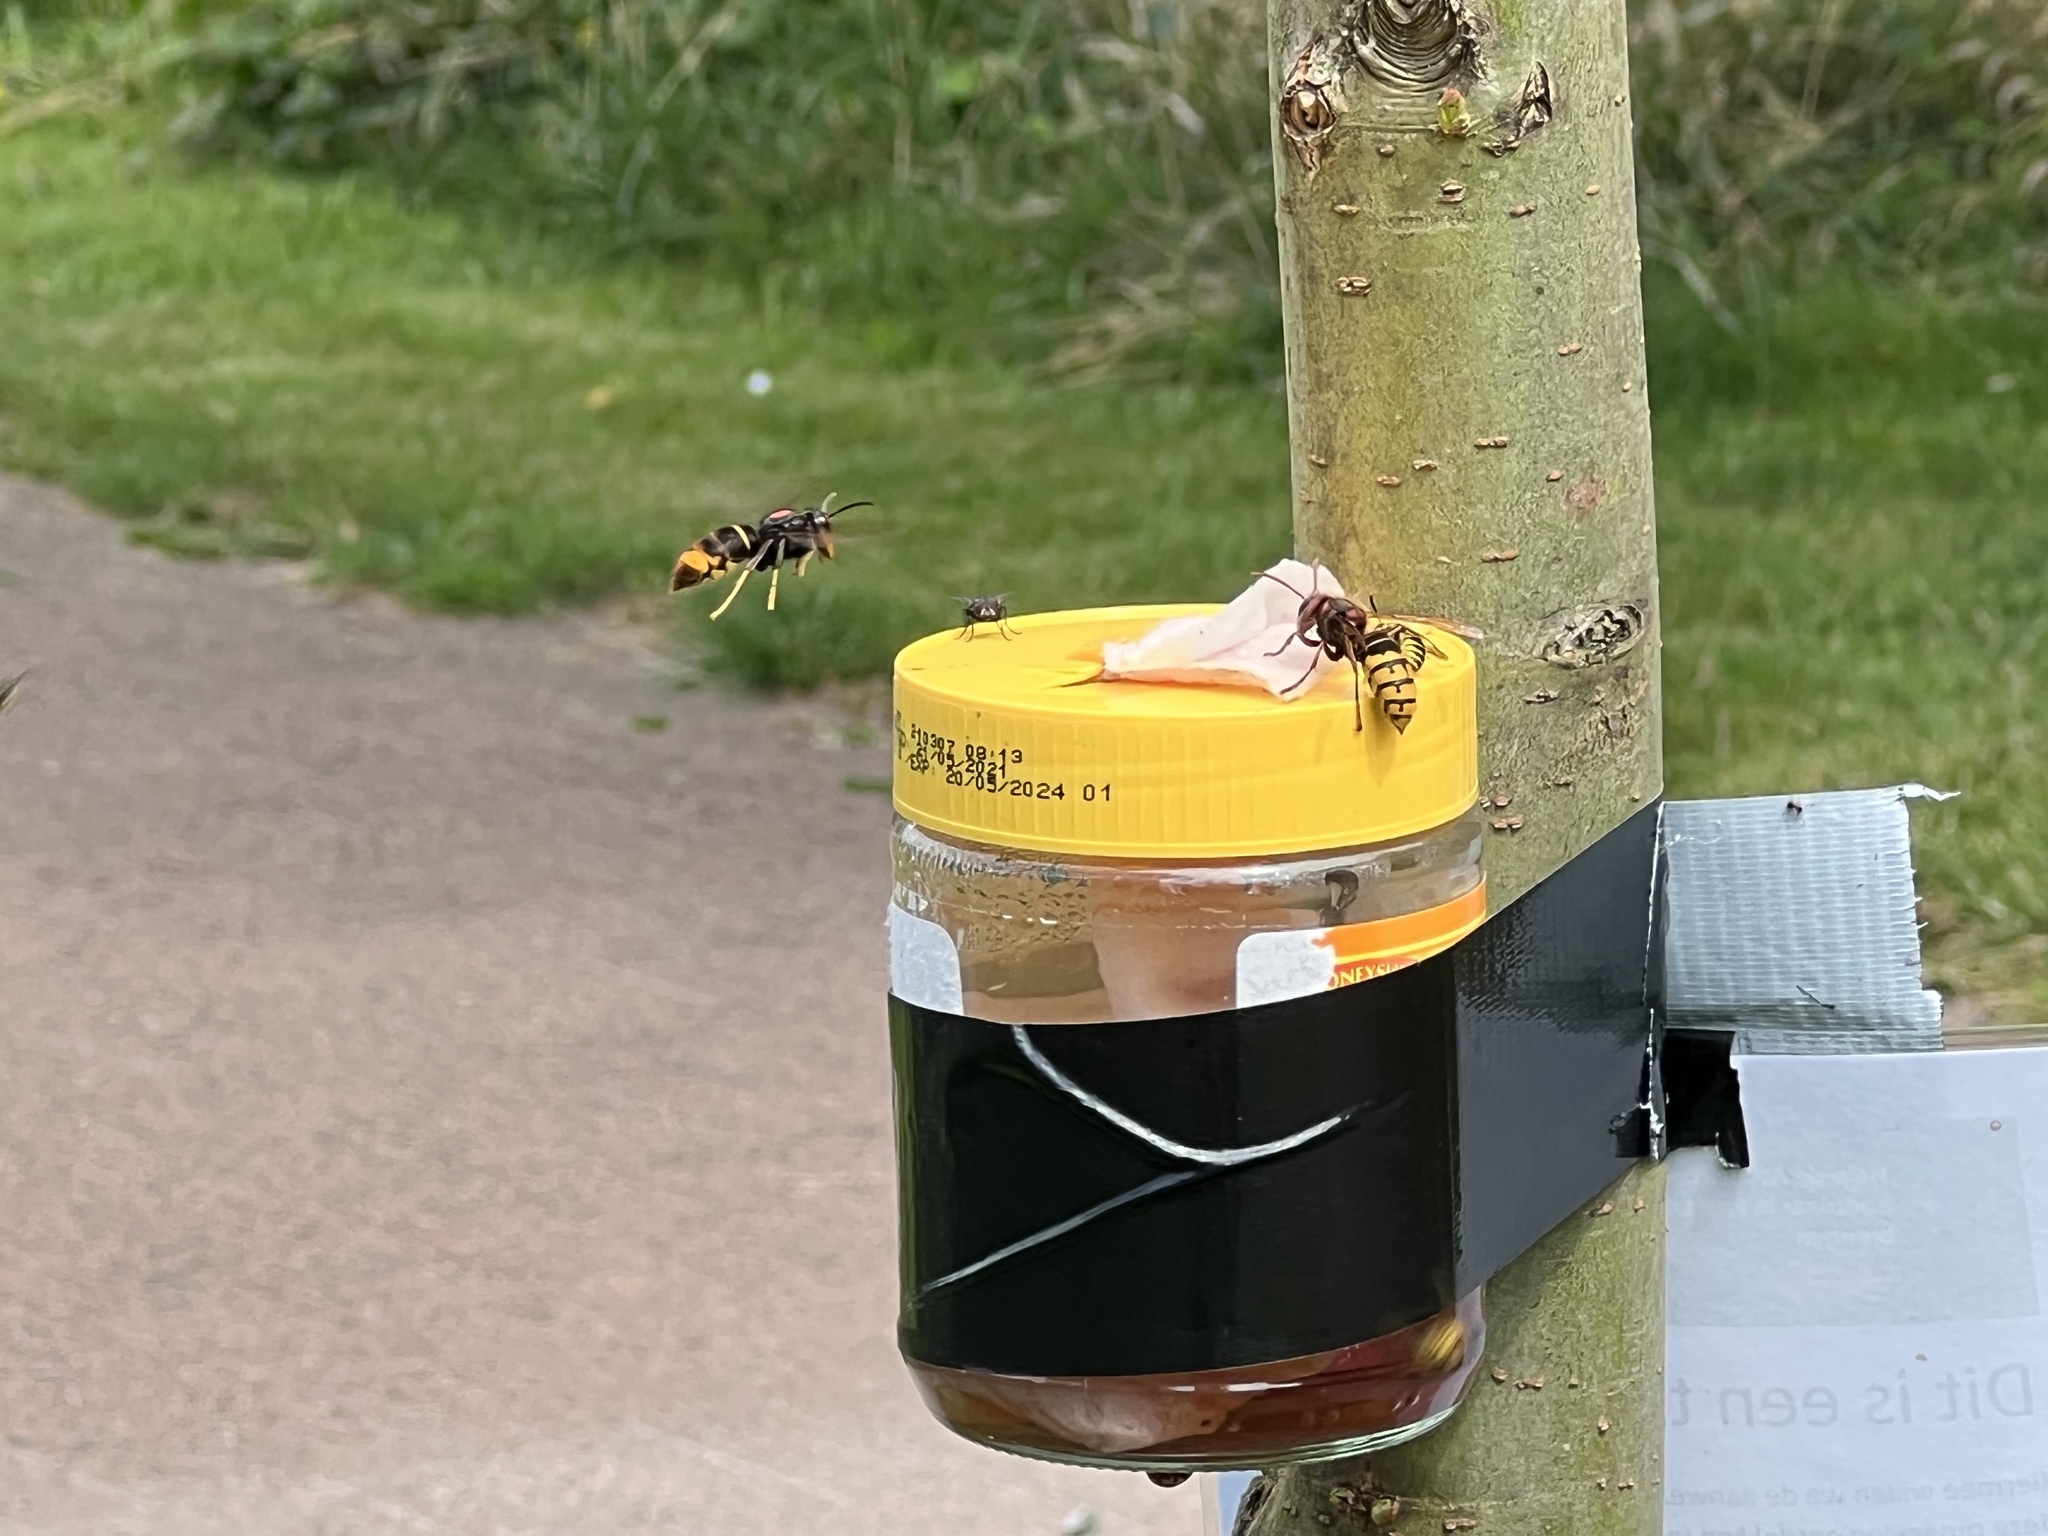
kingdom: Animalia
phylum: Arthropoda
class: Insecta
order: Hymenoptera
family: Vespidae
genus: Vespa
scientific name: Vespa velutina
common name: Asian hornet
